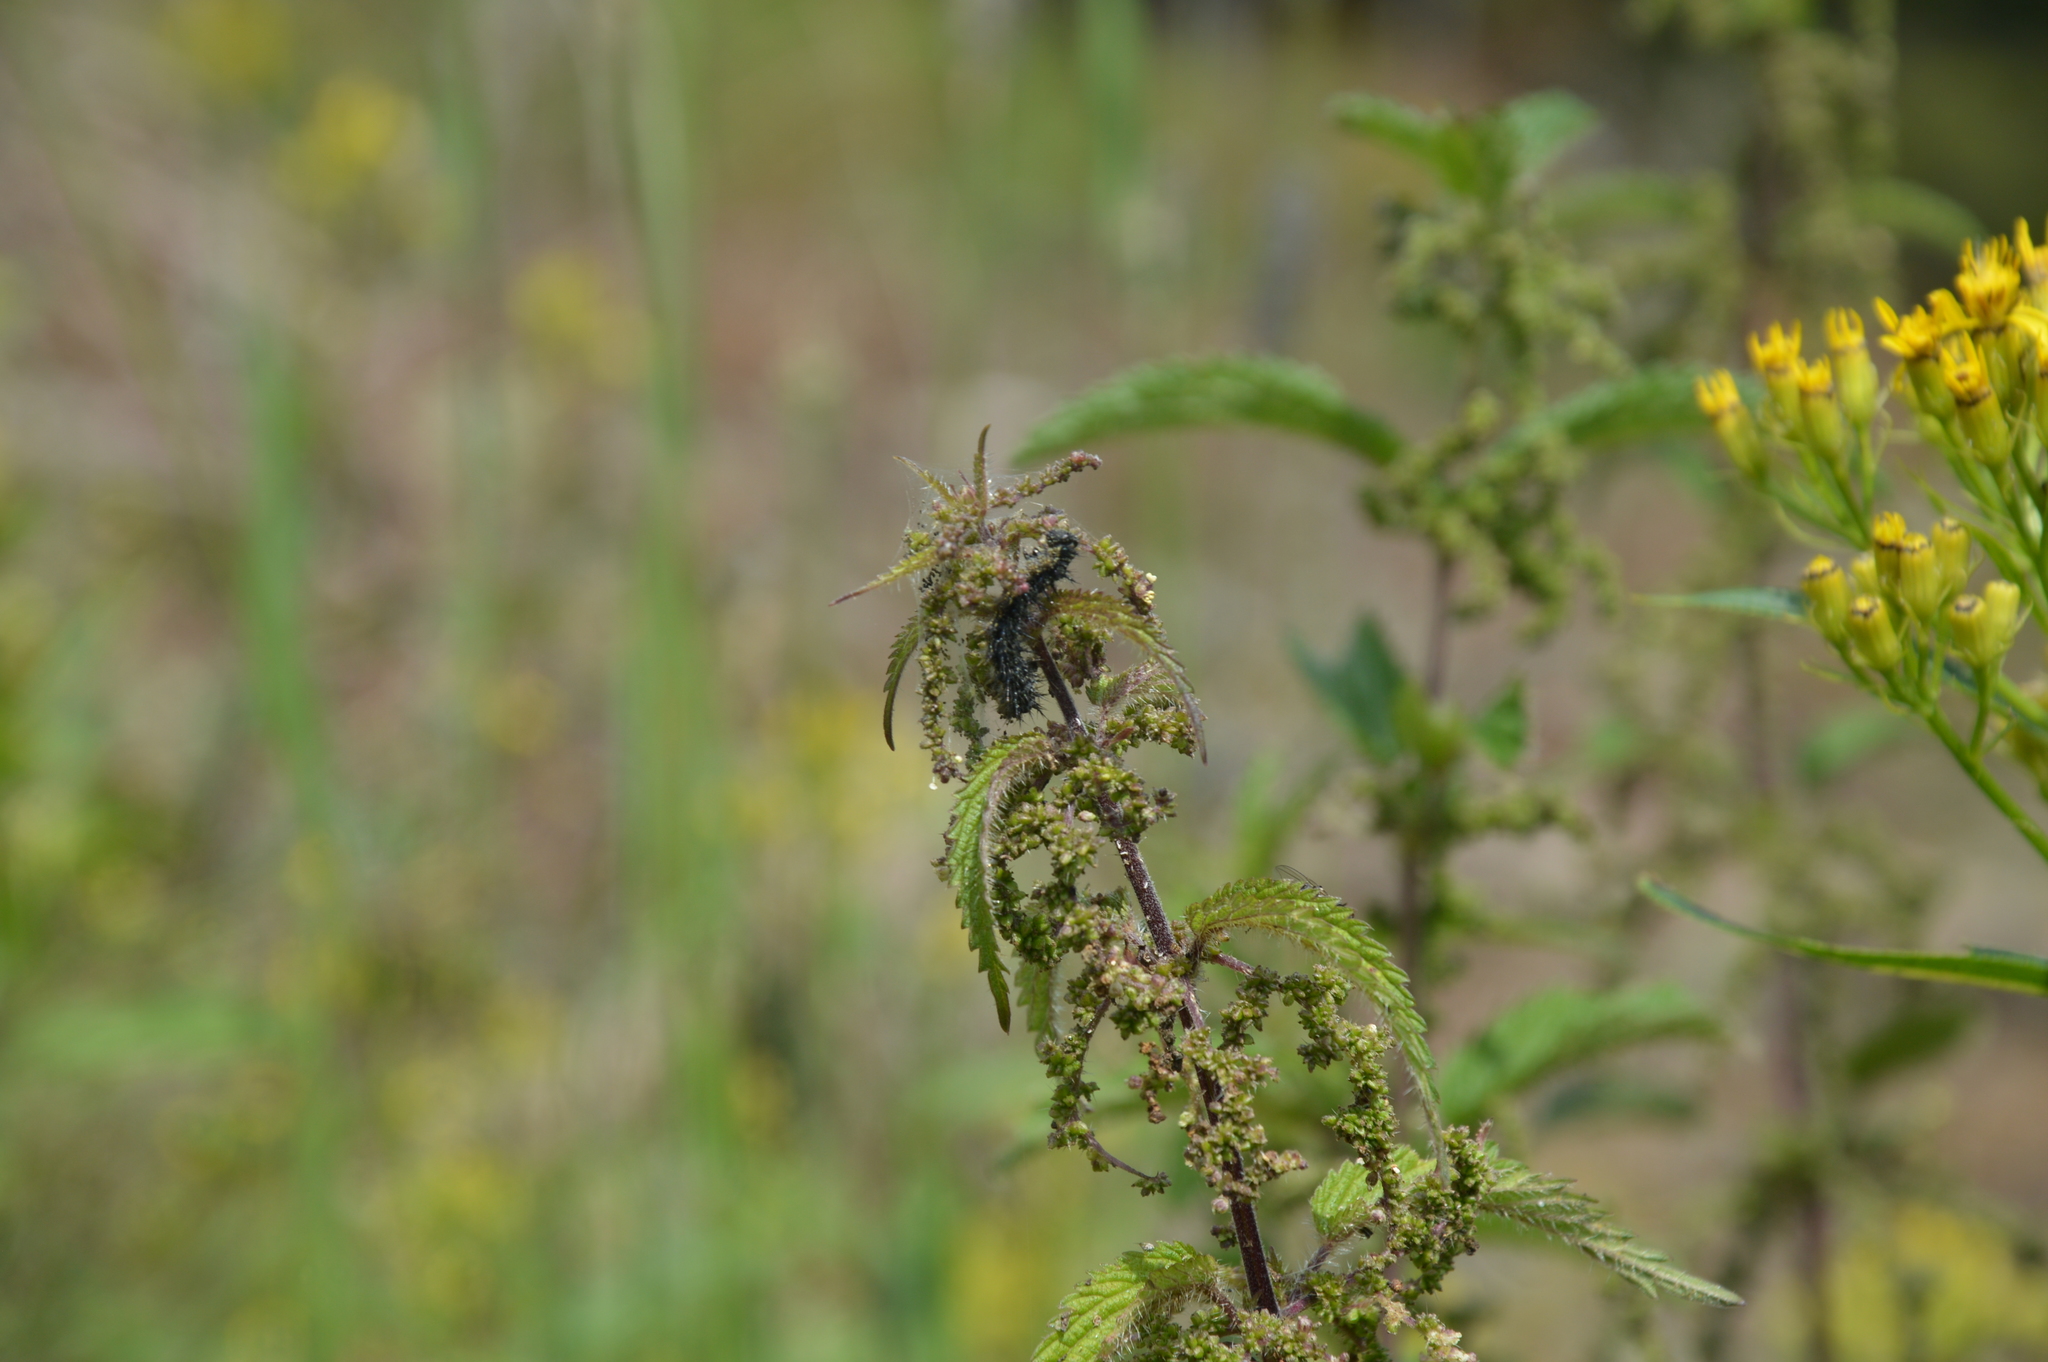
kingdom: Plantae
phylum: Tracheophyta
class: Magnoliopsida
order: Rosales
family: Urticaceae
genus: Urtica
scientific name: Urtica dioica
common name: Common nettle
